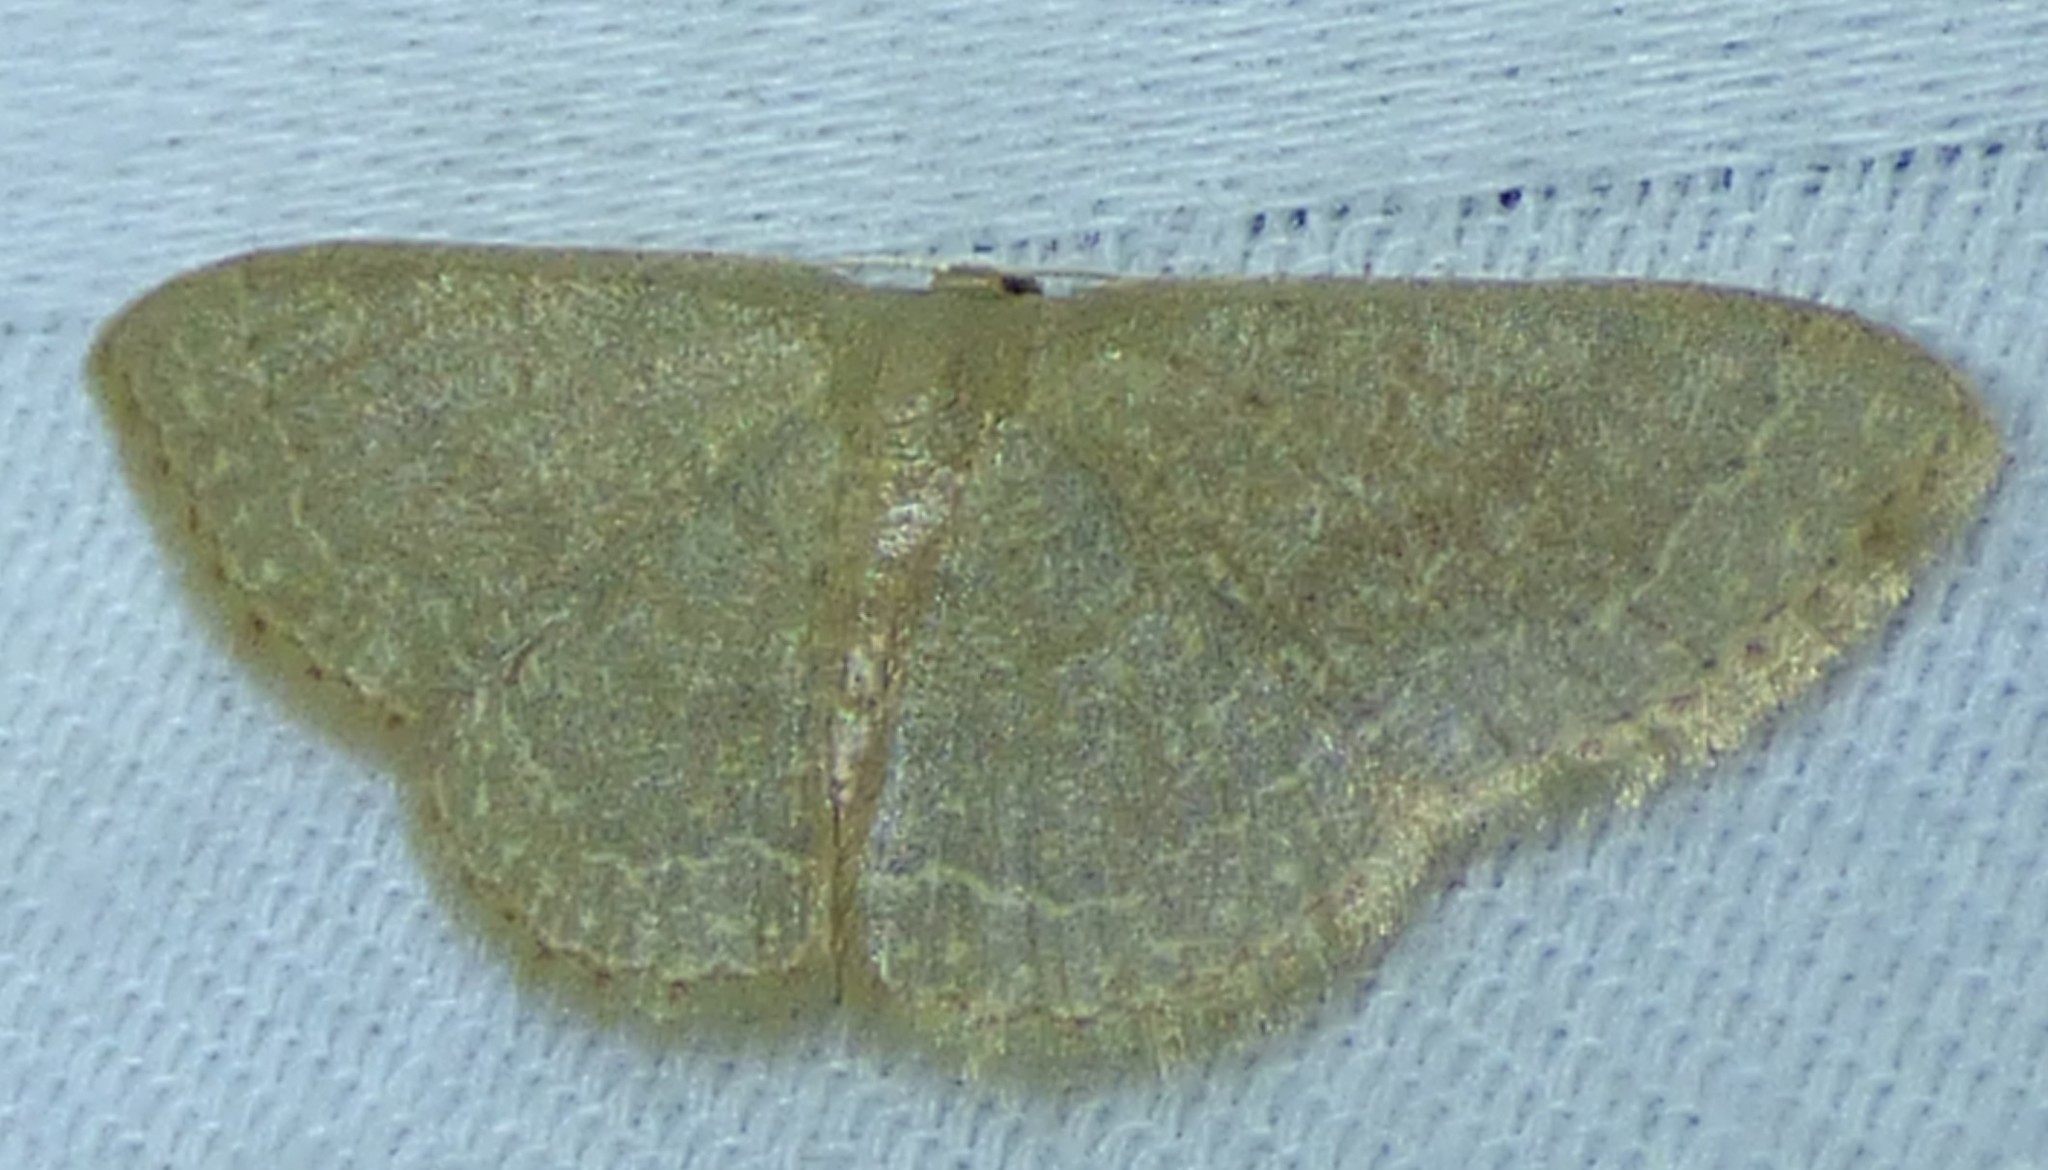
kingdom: Animalia
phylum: Arthropoda
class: Insecta
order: Lepidoptera
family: Geometridae
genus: Pleuroprucha
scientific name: Pleuroprucha insulsaria
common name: Common tan wave
